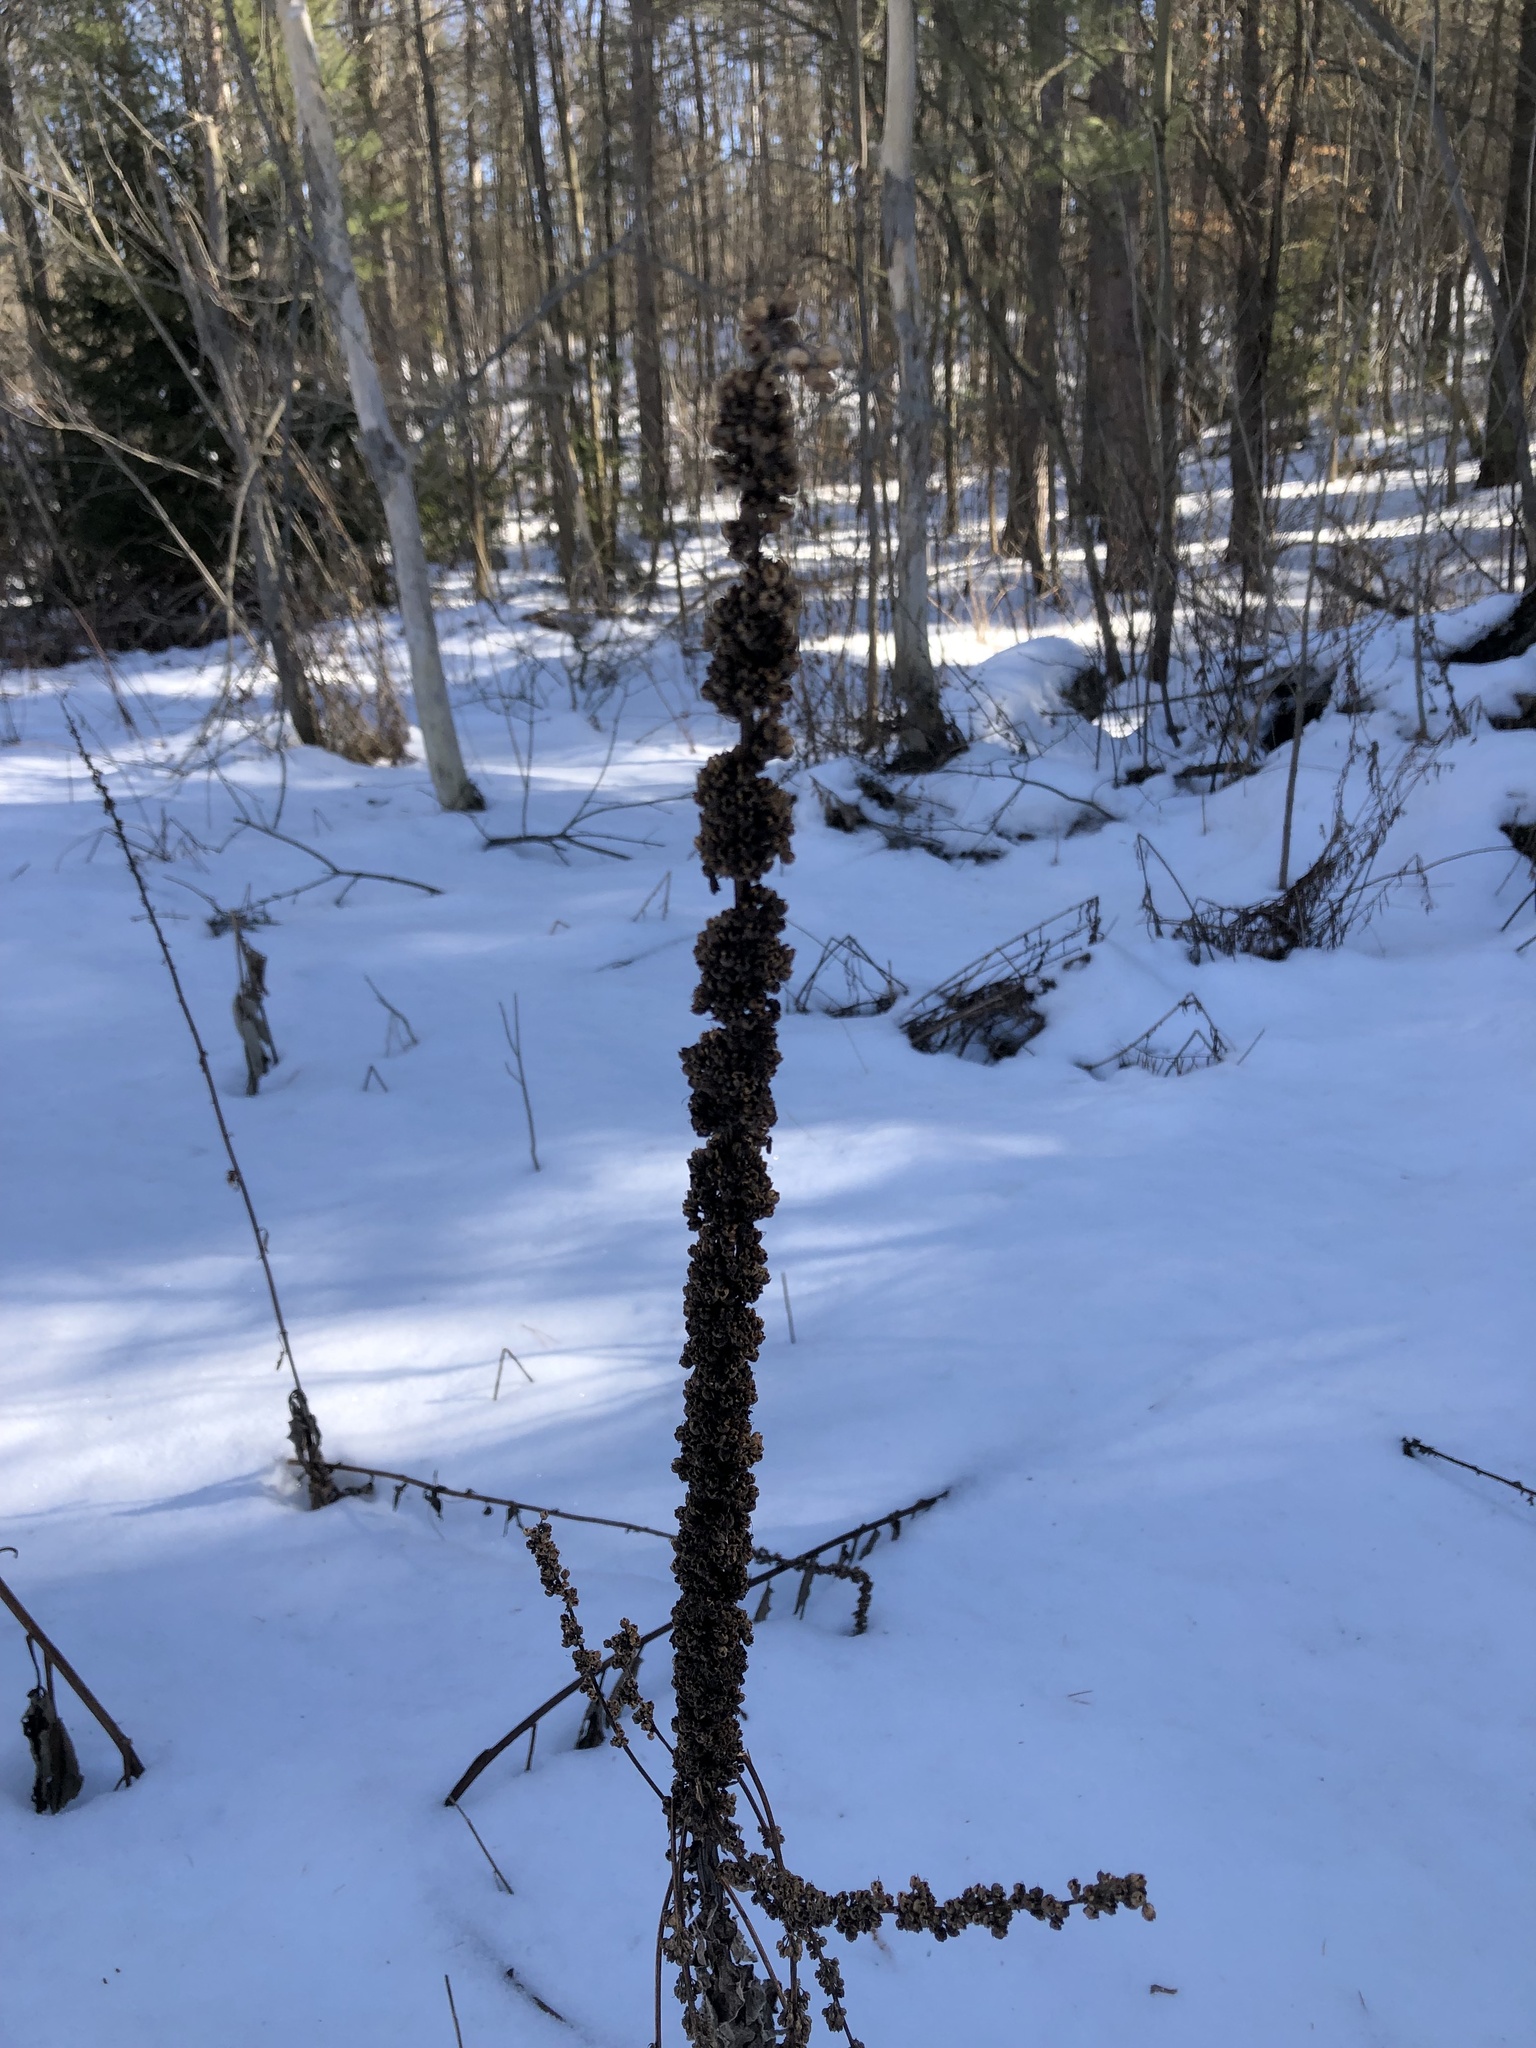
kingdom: Plantae
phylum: Tracheophyta
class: Magnoliopsida
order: Lamiales
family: Scrophulariaceae
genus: Verbascum
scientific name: Verbascum thapsus
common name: Common mullein
